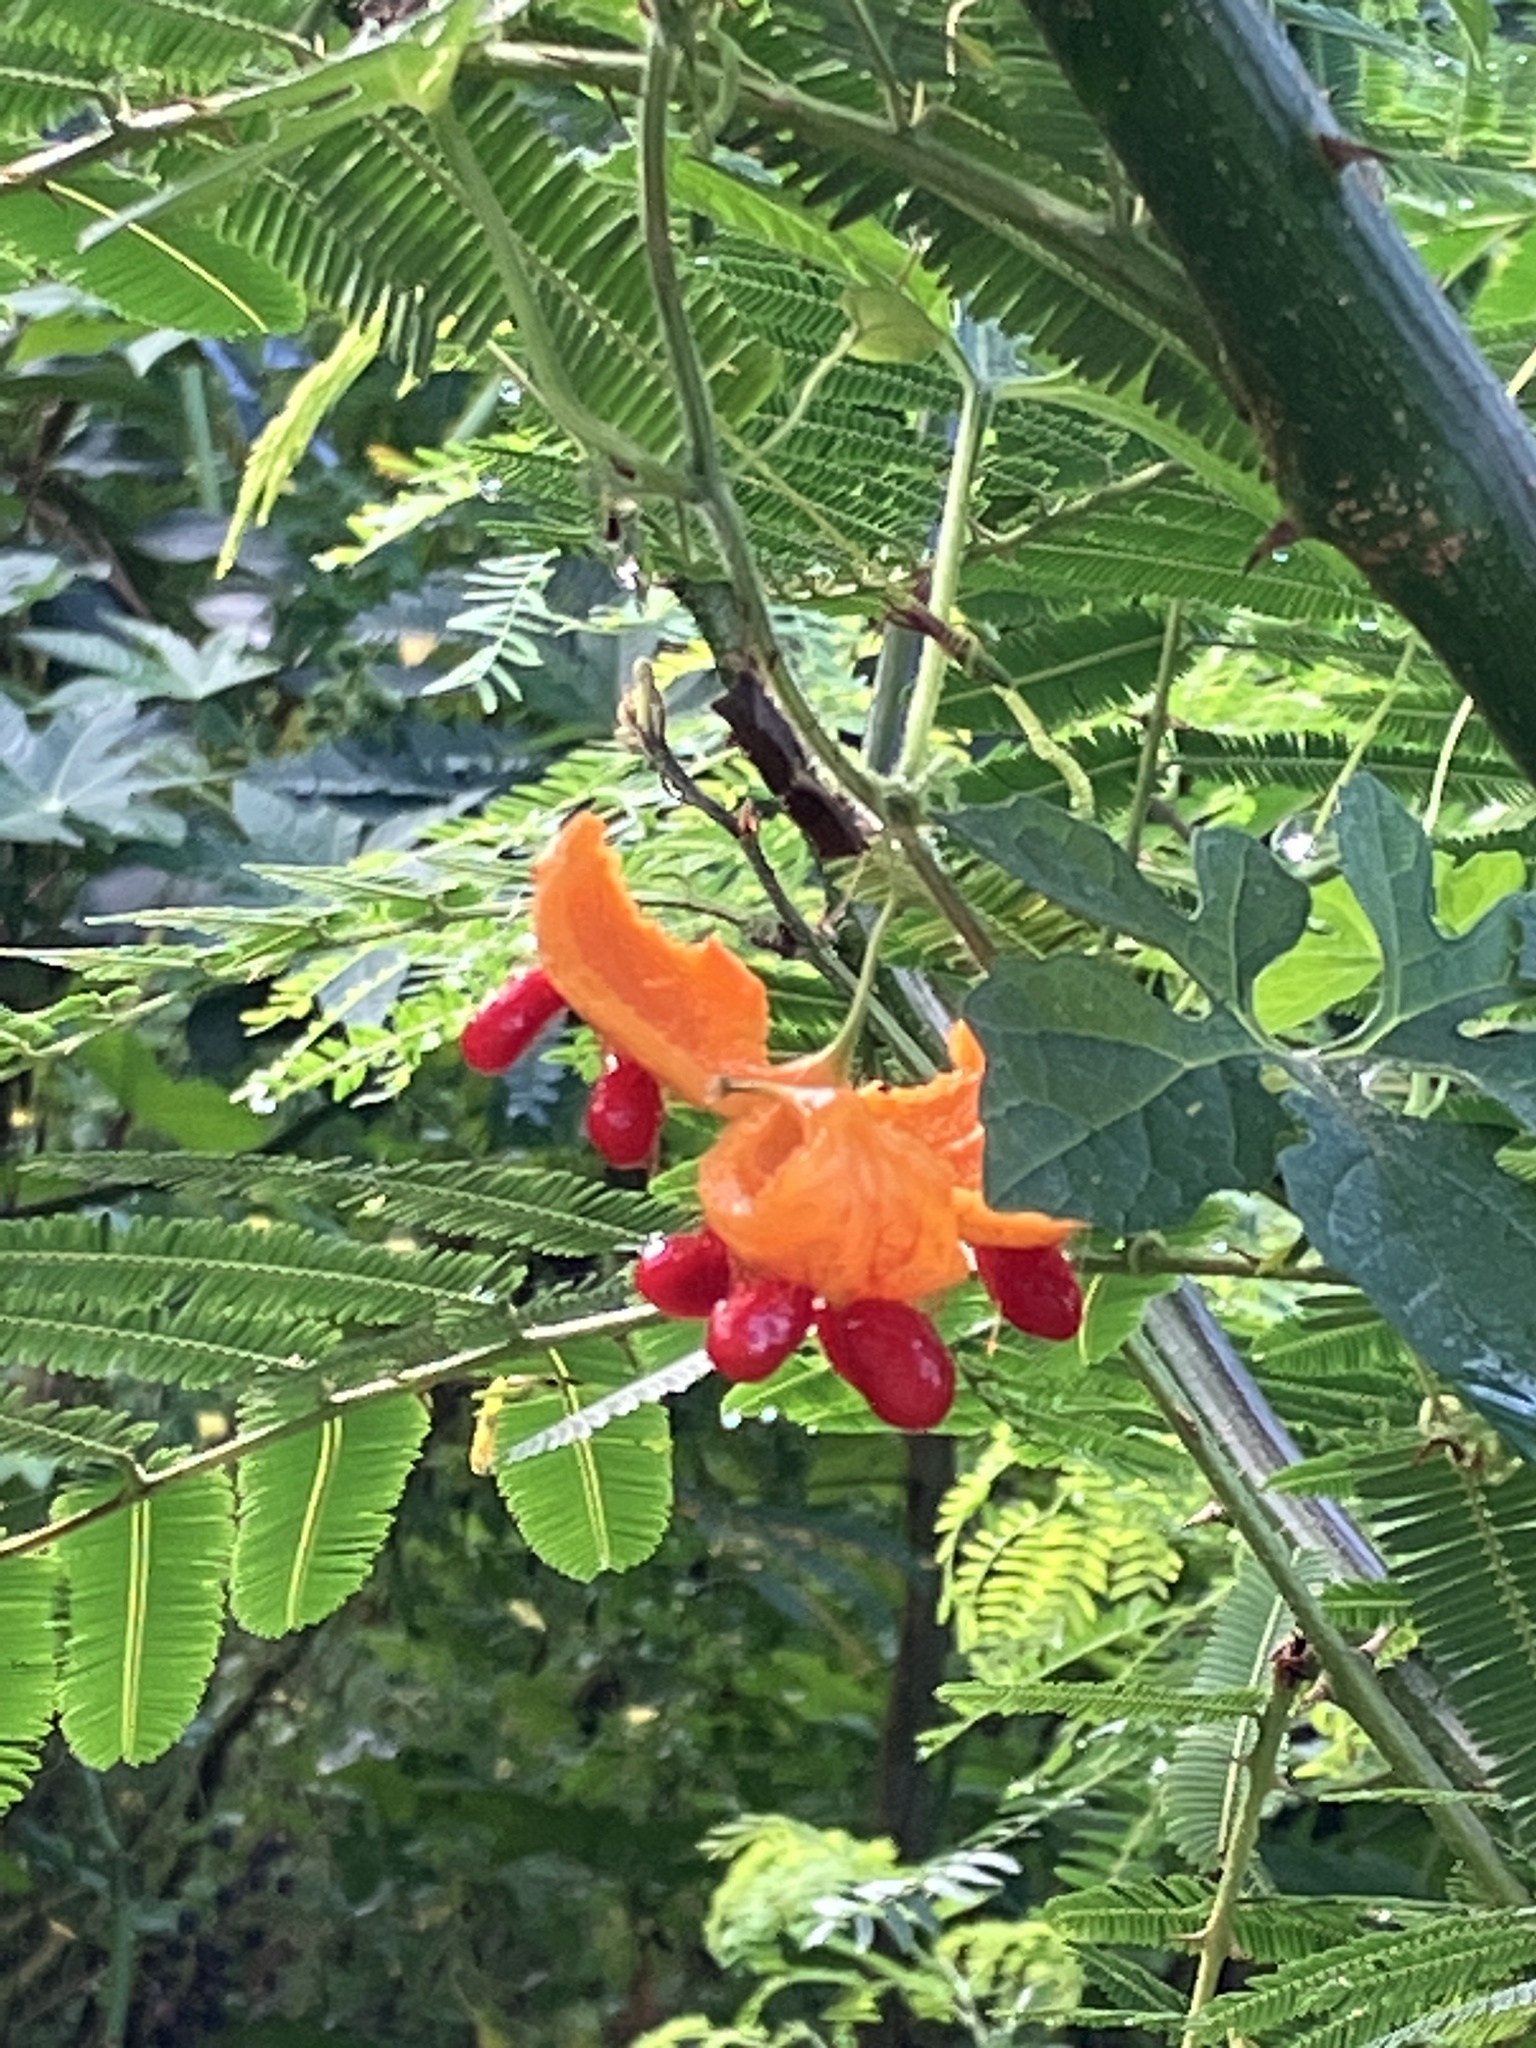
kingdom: Plantae
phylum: Tracheophyta
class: Magnoliopsida
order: Cucurbitales
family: Cucurbitaceae
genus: Momordica
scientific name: Momordica charantia
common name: Balsampear
